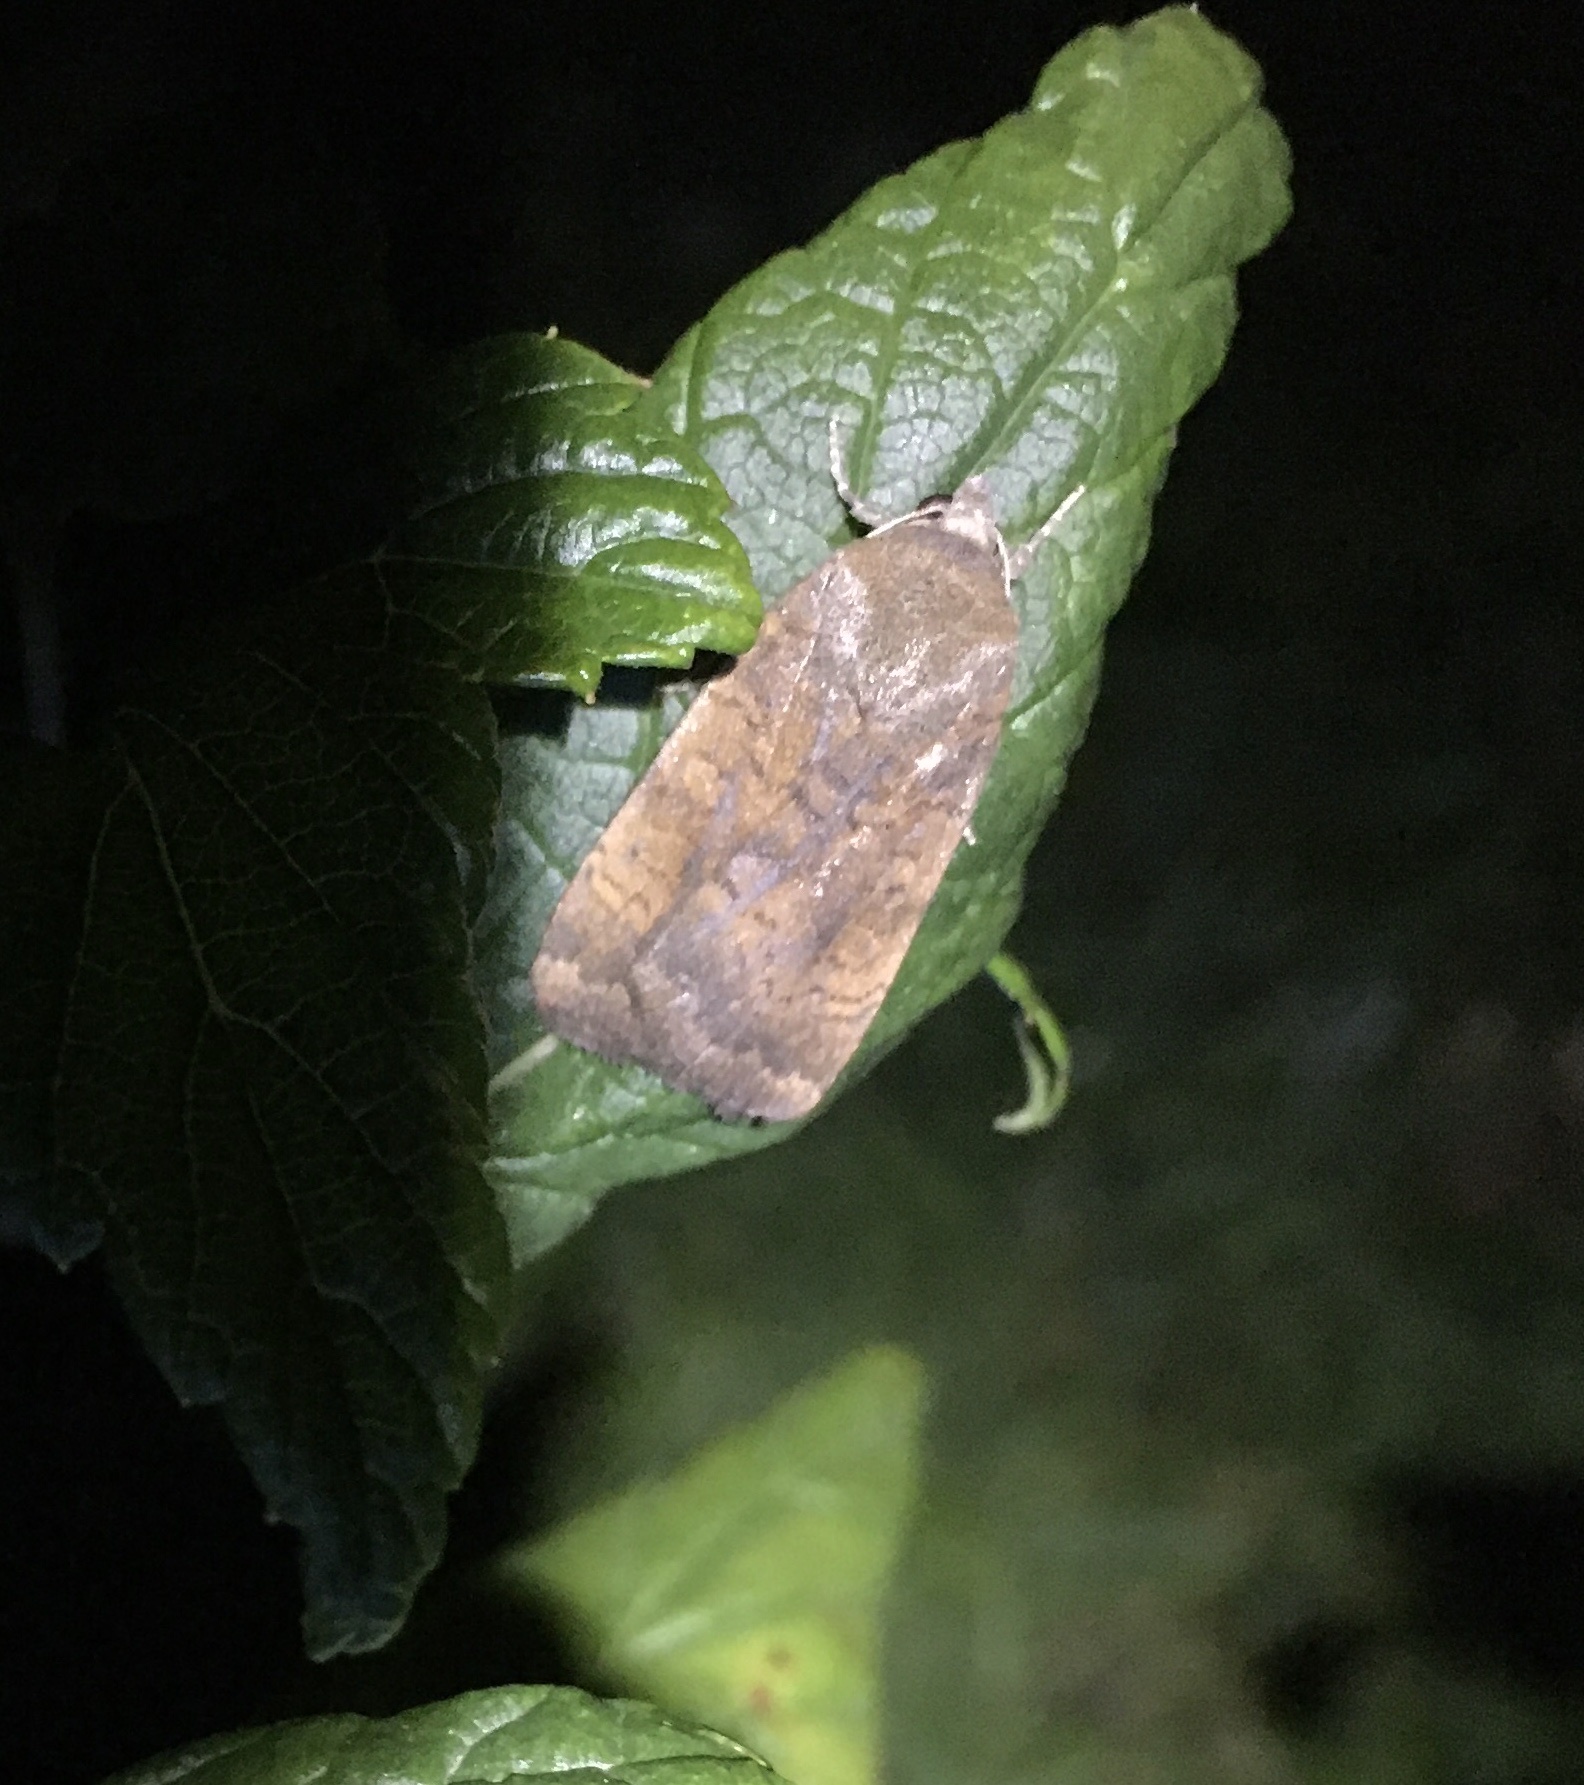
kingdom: Animalia
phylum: Arthropoda
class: Insecta
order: Lepidoptera
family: Noctuidae
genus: Noctua
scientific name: Noctua interjecta
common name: Least yellow underwing
